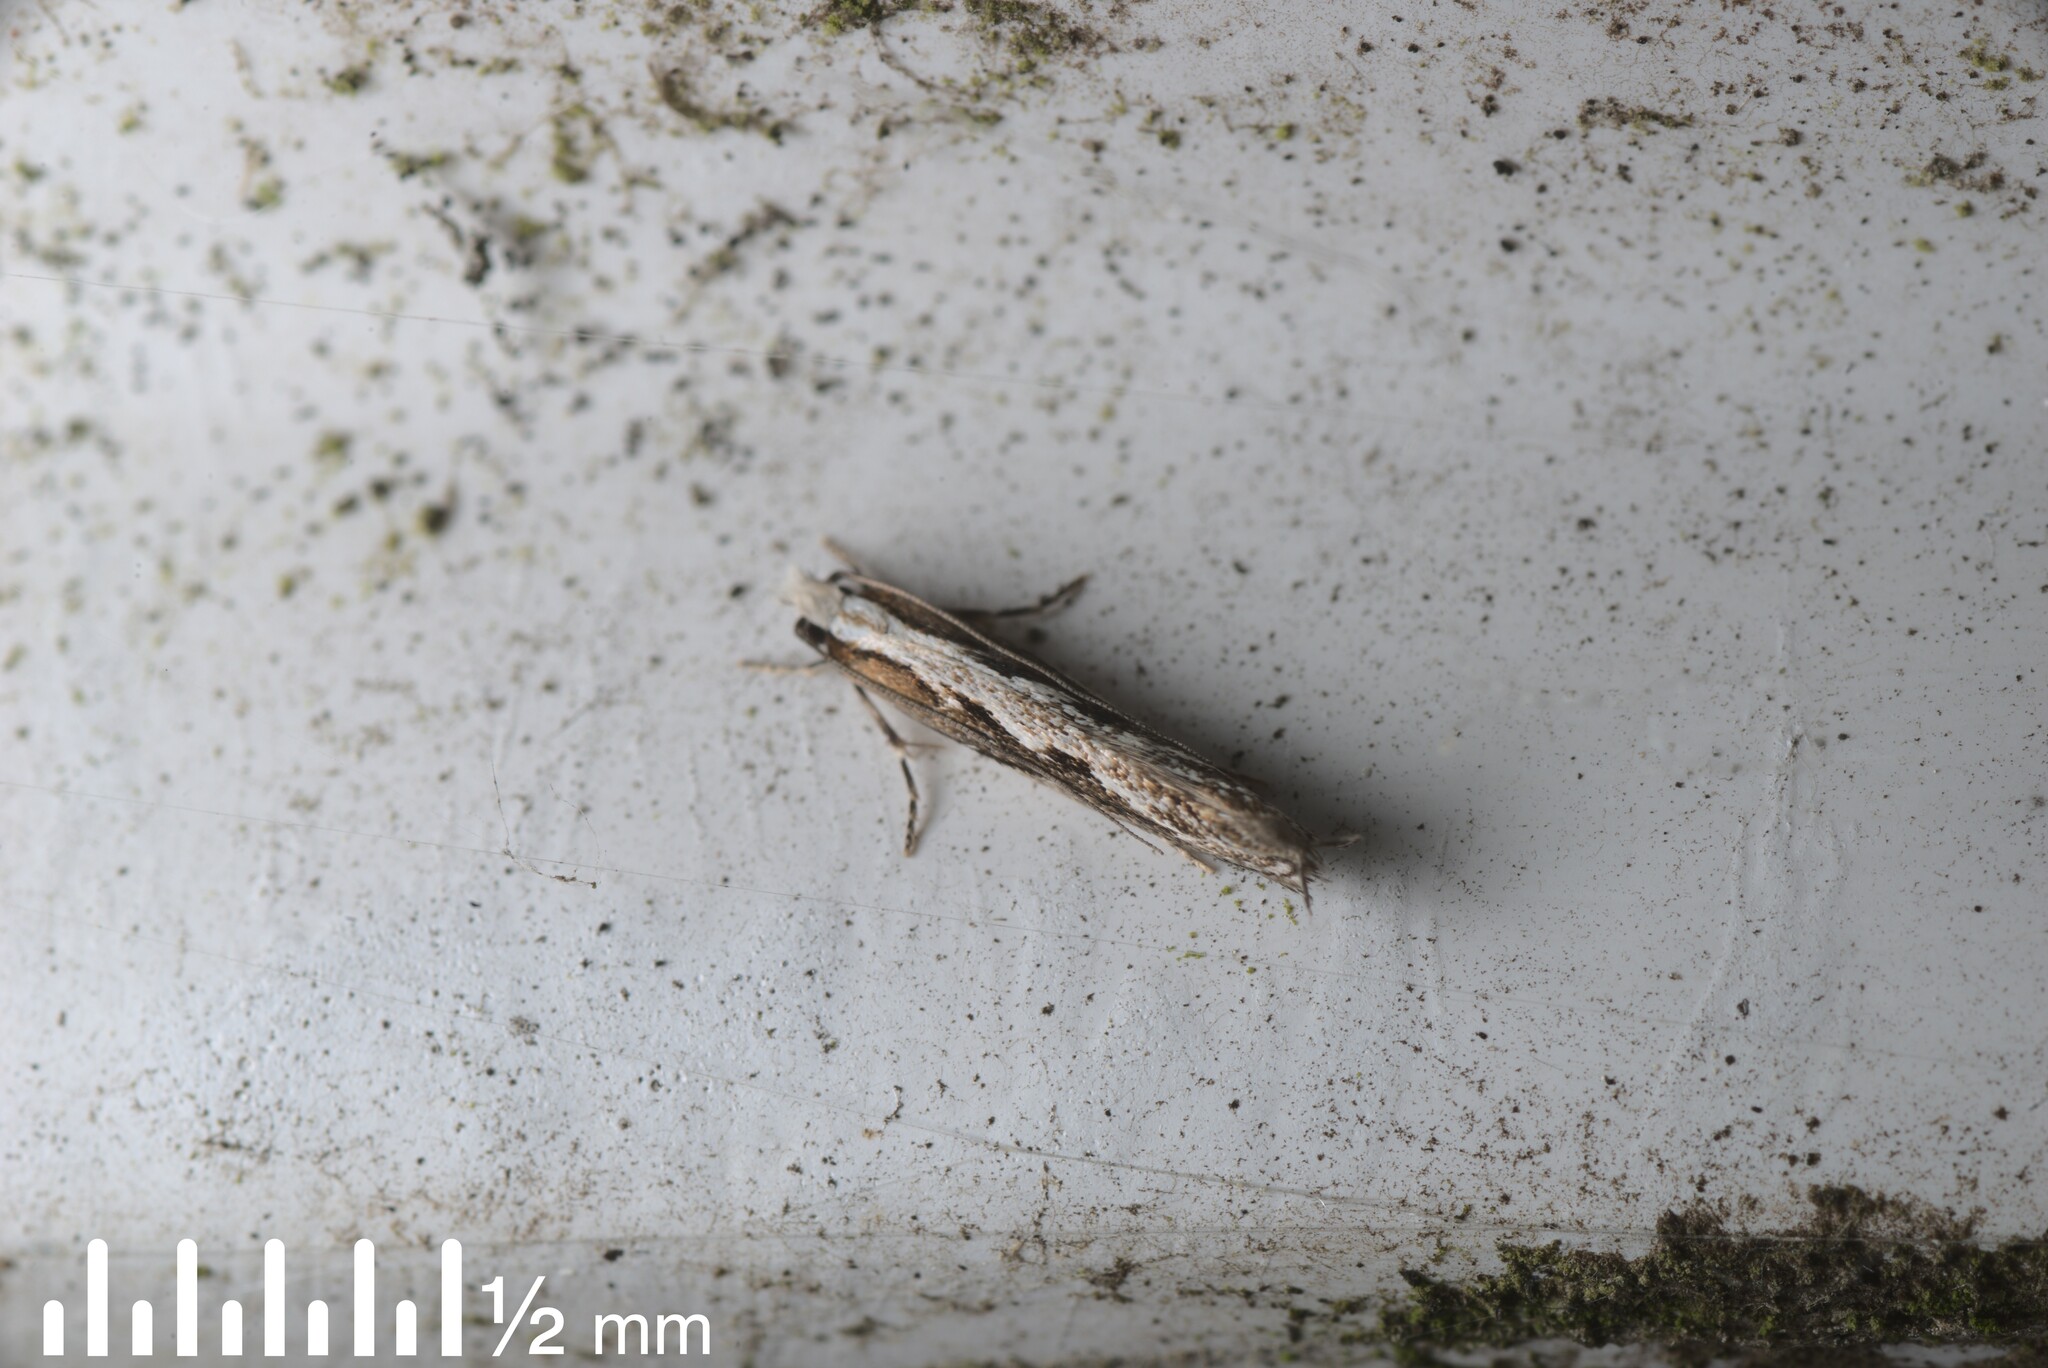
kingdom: Animalia
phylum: Arthropoda
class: Insecta
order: Lepidoptera
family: Tineidae
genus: Erechthias
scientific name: Erechthias fulguritella
